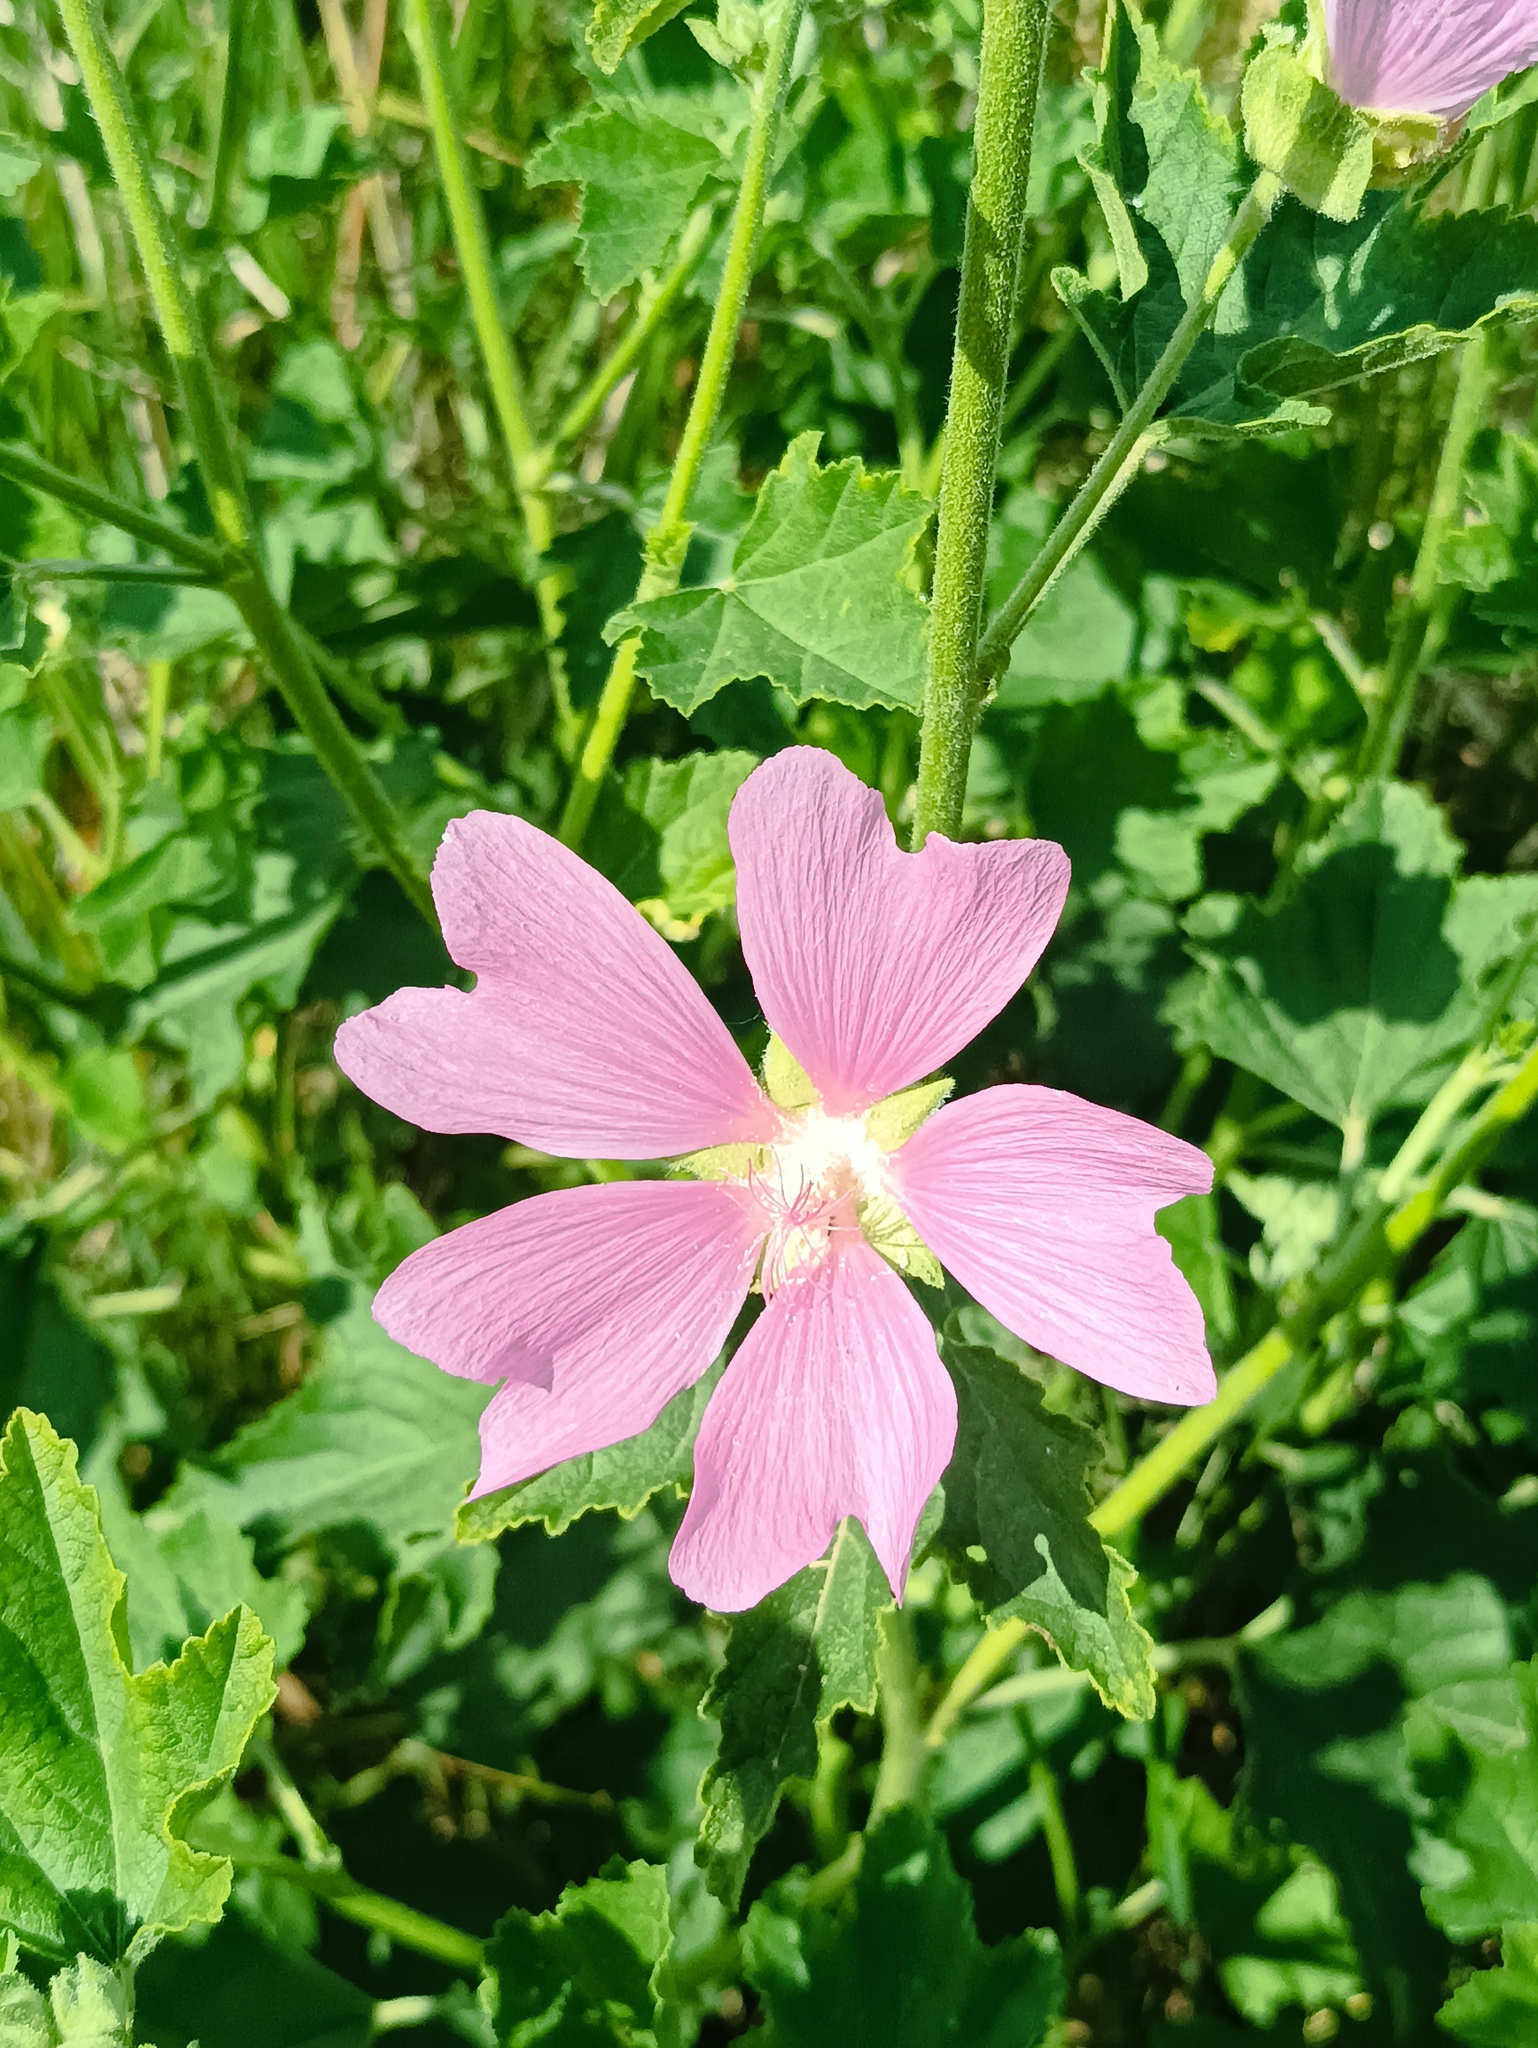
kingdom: Plantae
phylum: Tracheophyta
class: Magnoliopsida
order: Malvales
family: Malvaceae
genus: Malva
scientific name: Malva thuringiaca
